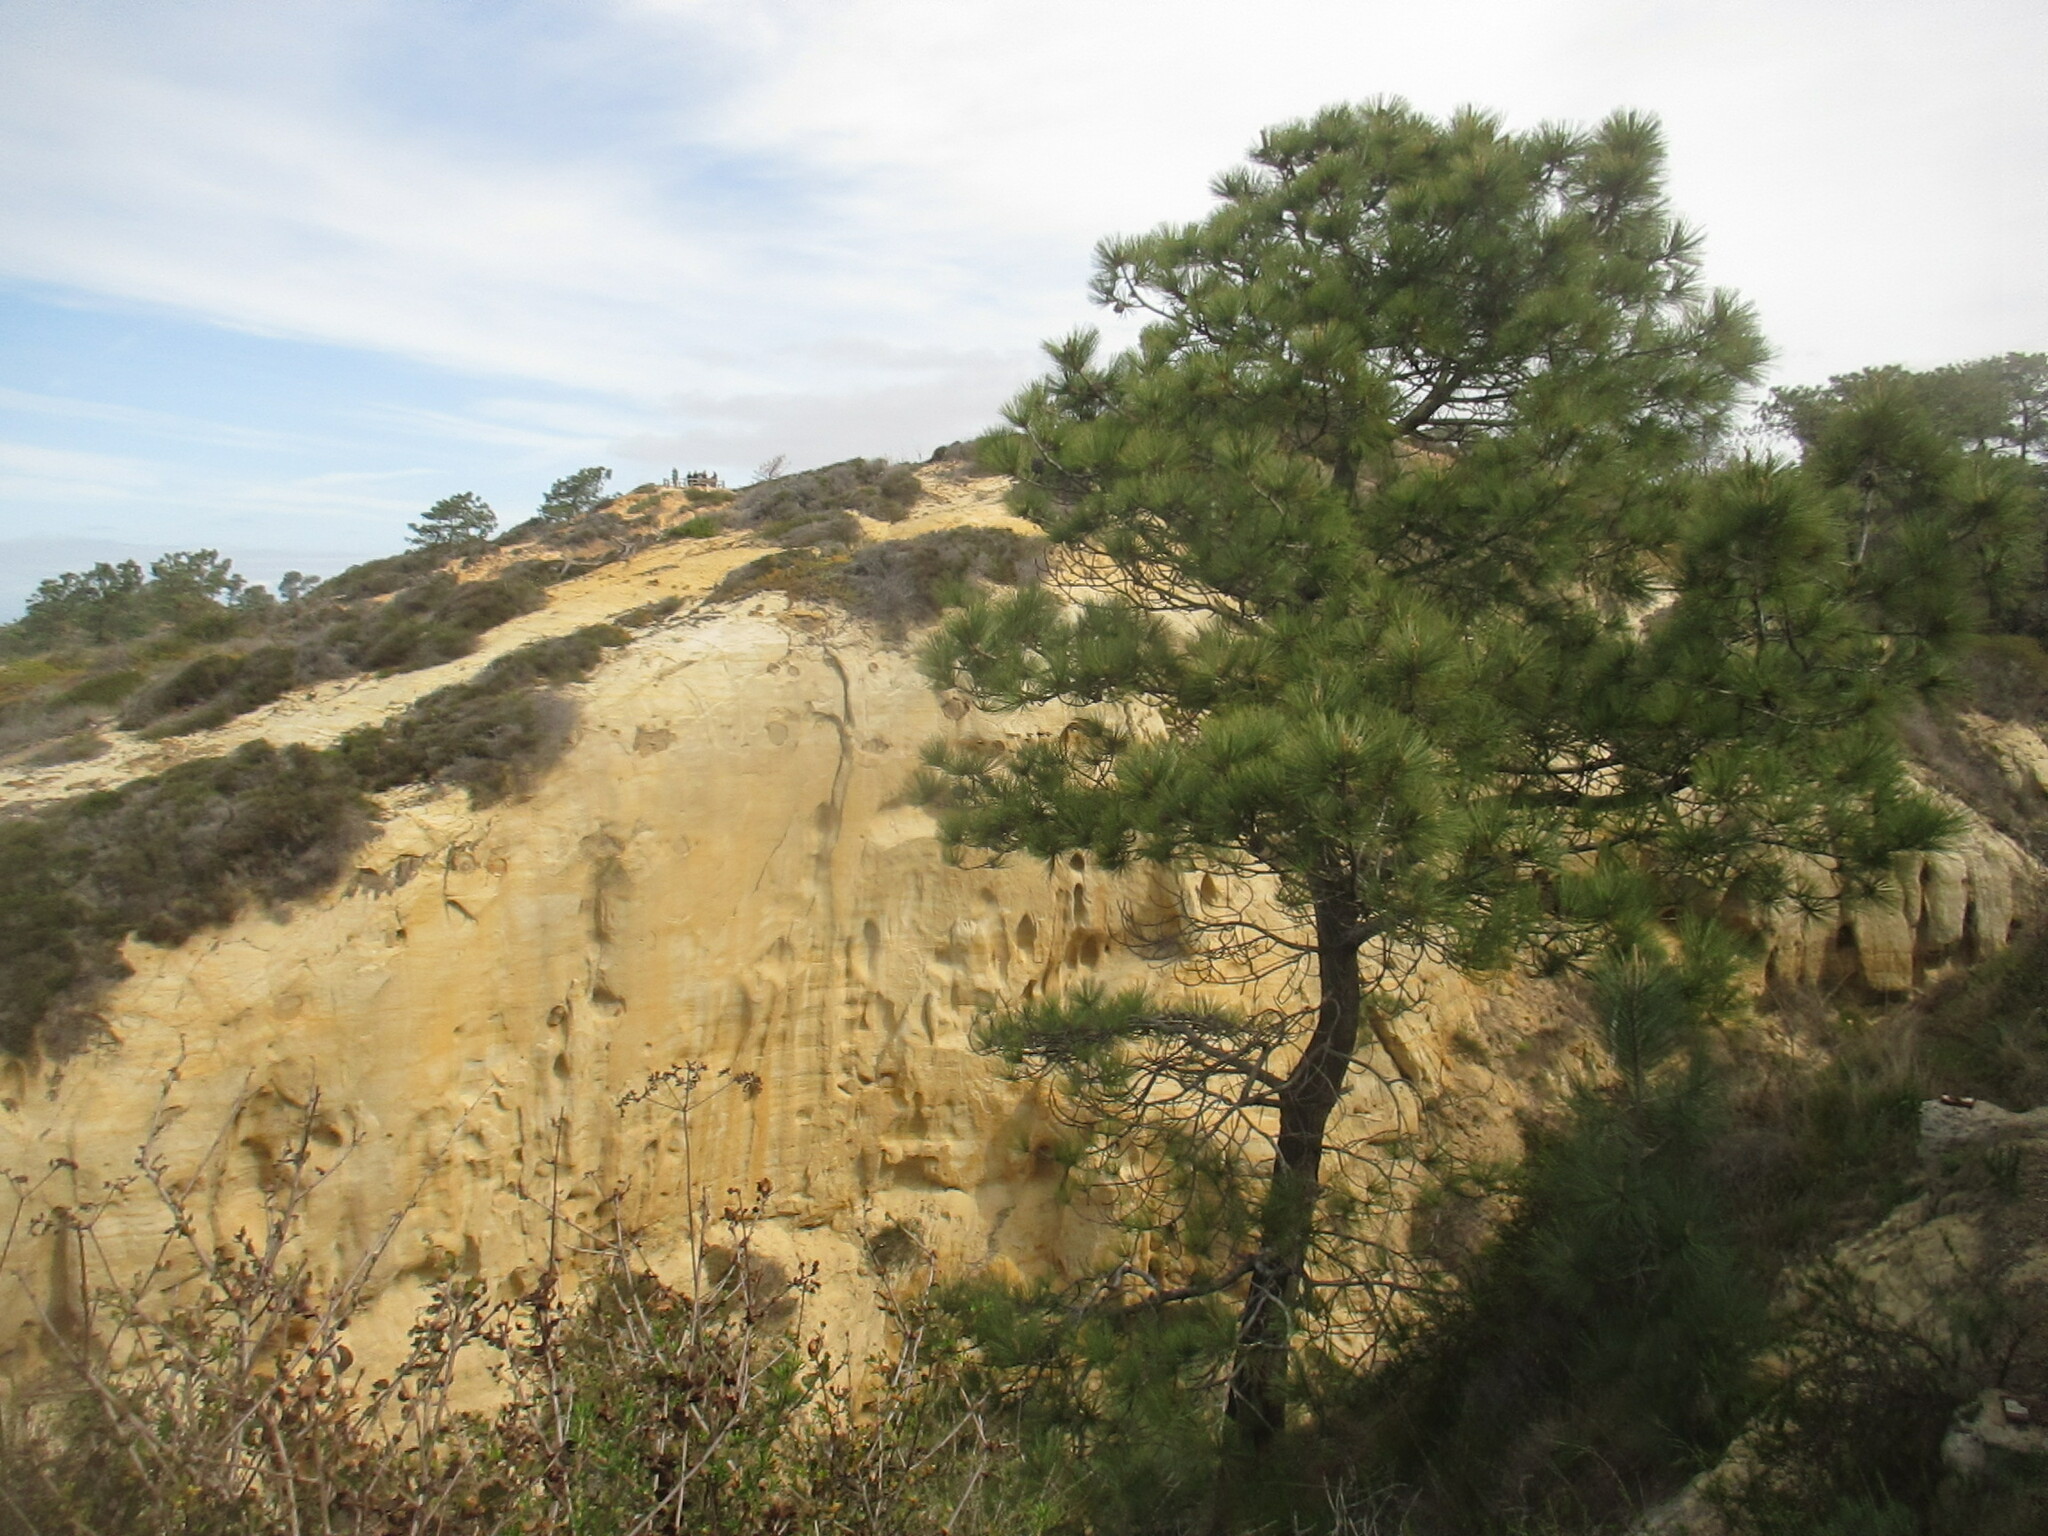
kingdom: Plantae
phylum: Tracheophyta
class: Pinopsida
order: Pinales
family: Pinaceae
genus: Pinus
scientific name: Pinus torreyana
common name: Torrey pine
